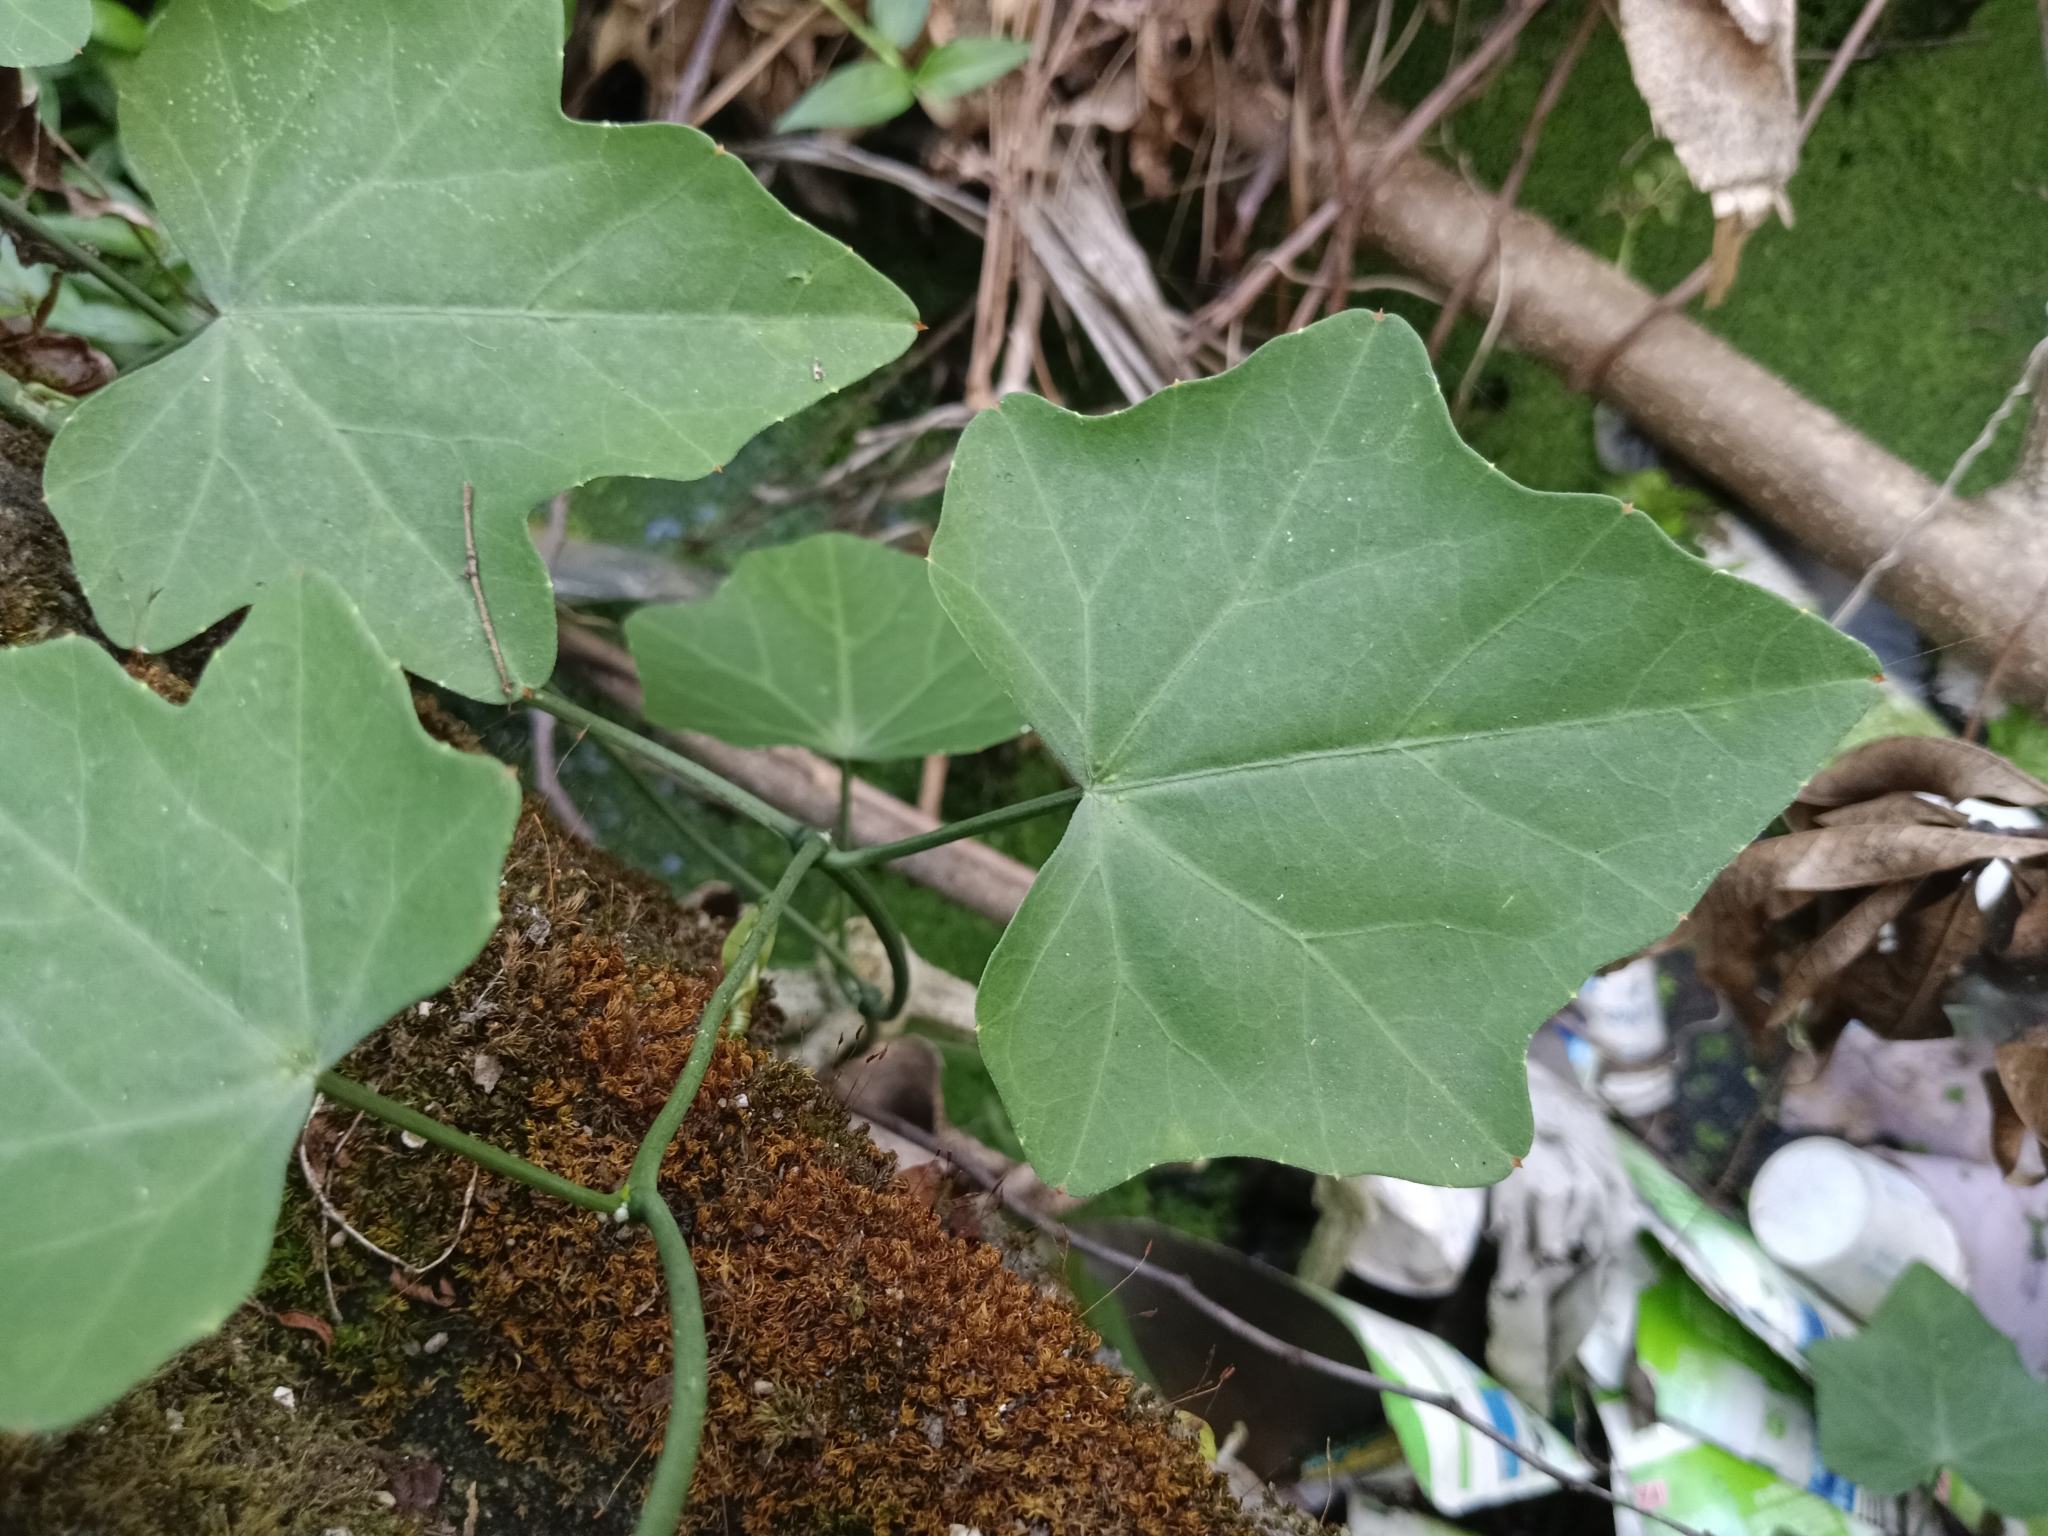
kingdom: Plantae
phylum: Tracheophyta
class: Magnoliopsida
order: Cucurbitales
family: Cucurbitaceae
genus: Coccinia
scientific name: Coccinia grandis
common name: Ivy gourd
